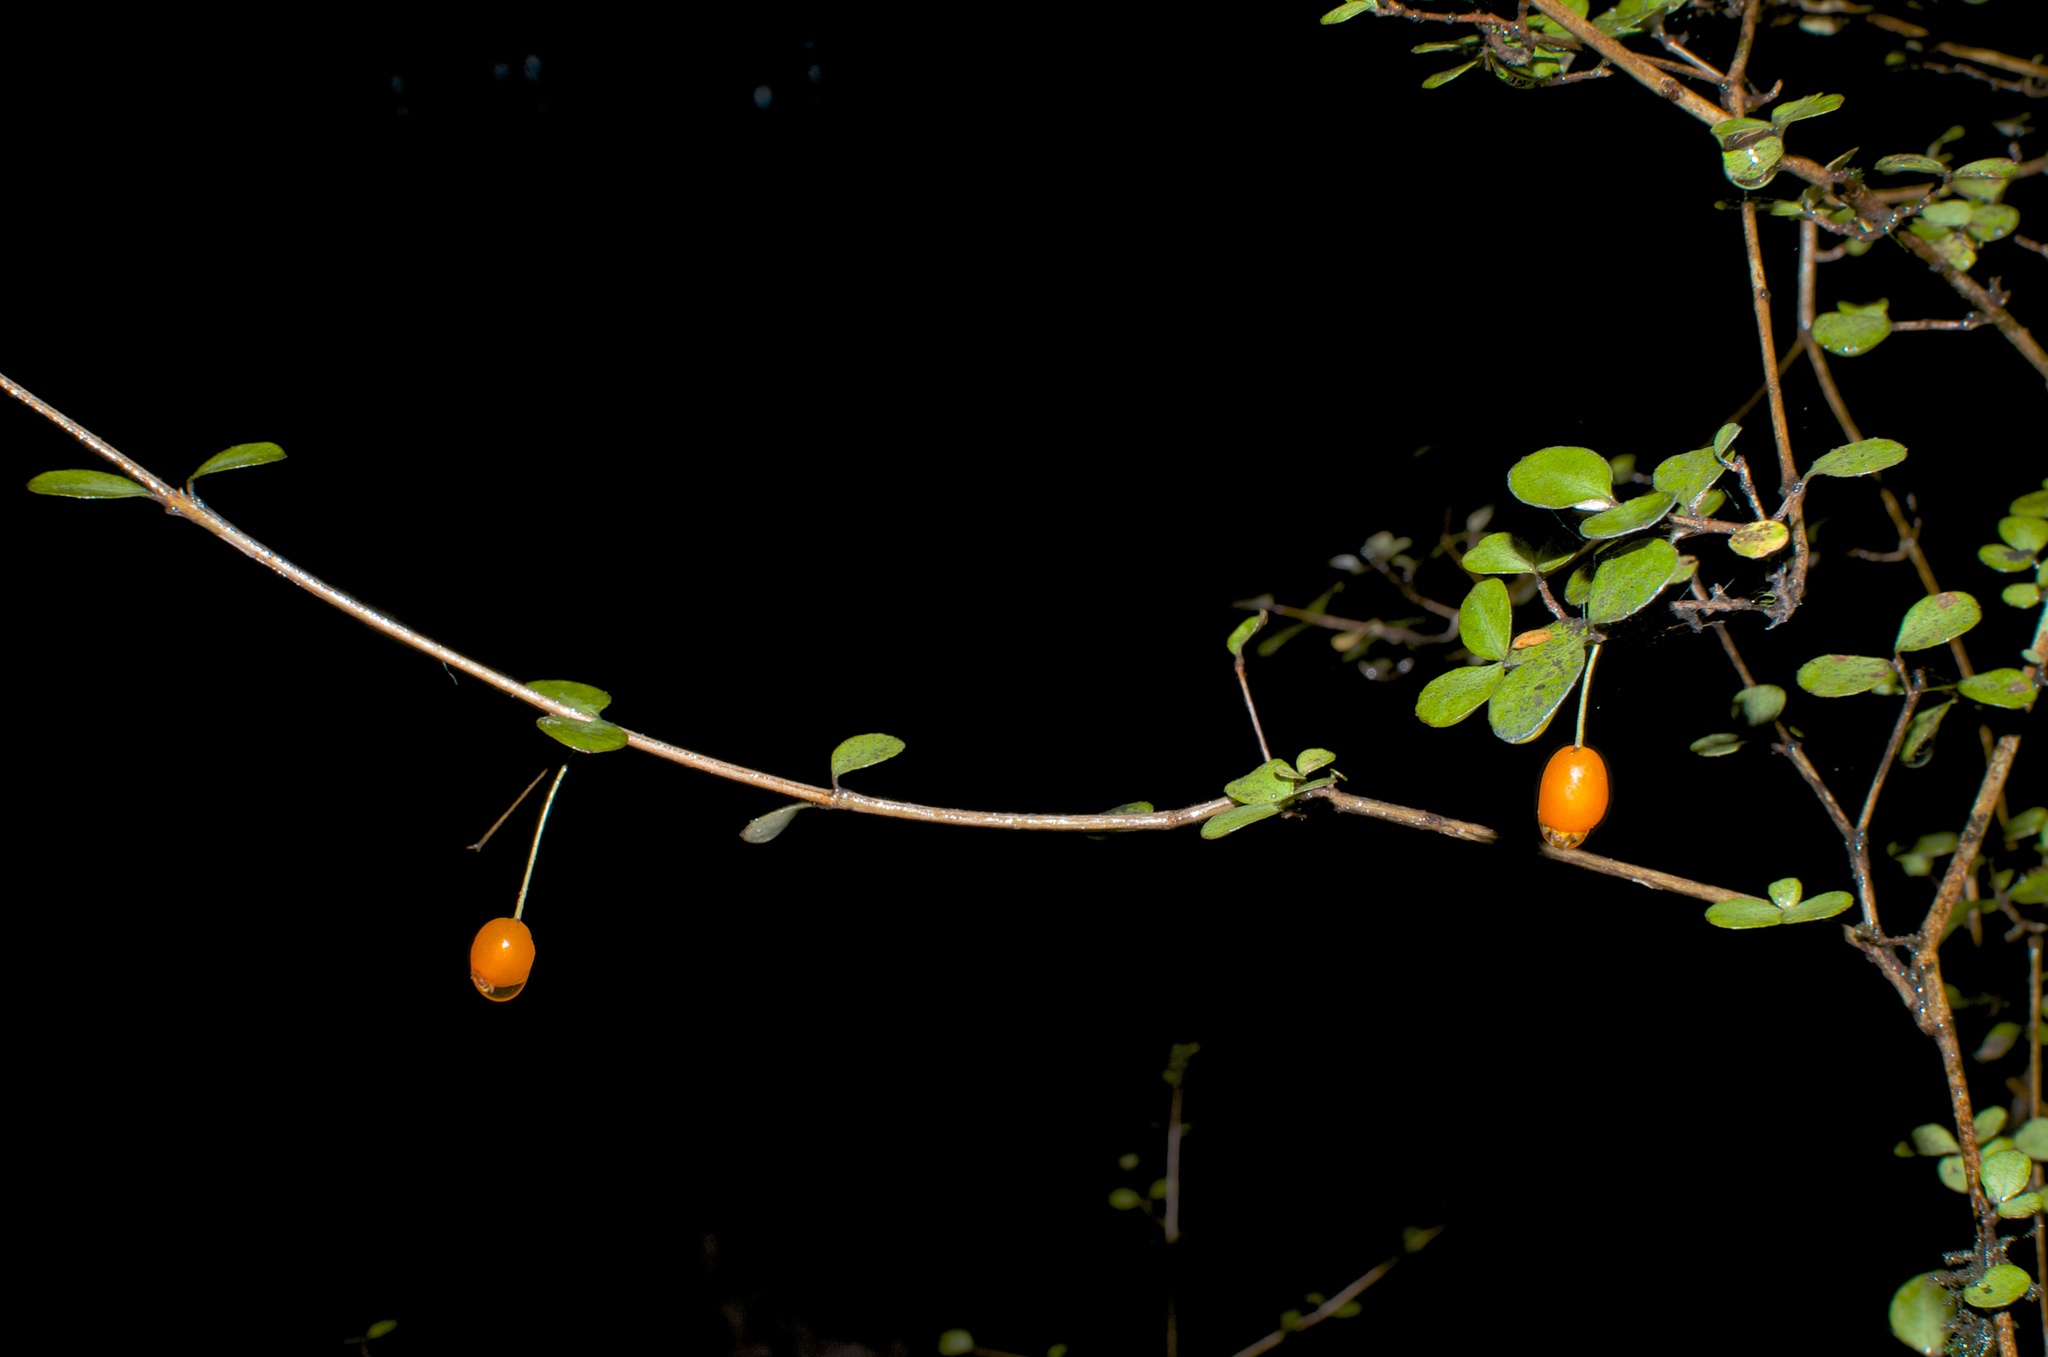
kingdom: Plantae
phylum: Tracheophyta
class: Magnoliopsida
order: Myrtales
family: Myrtaceae
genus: Neomyrtus
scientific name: Neomyrtus pedunculata
